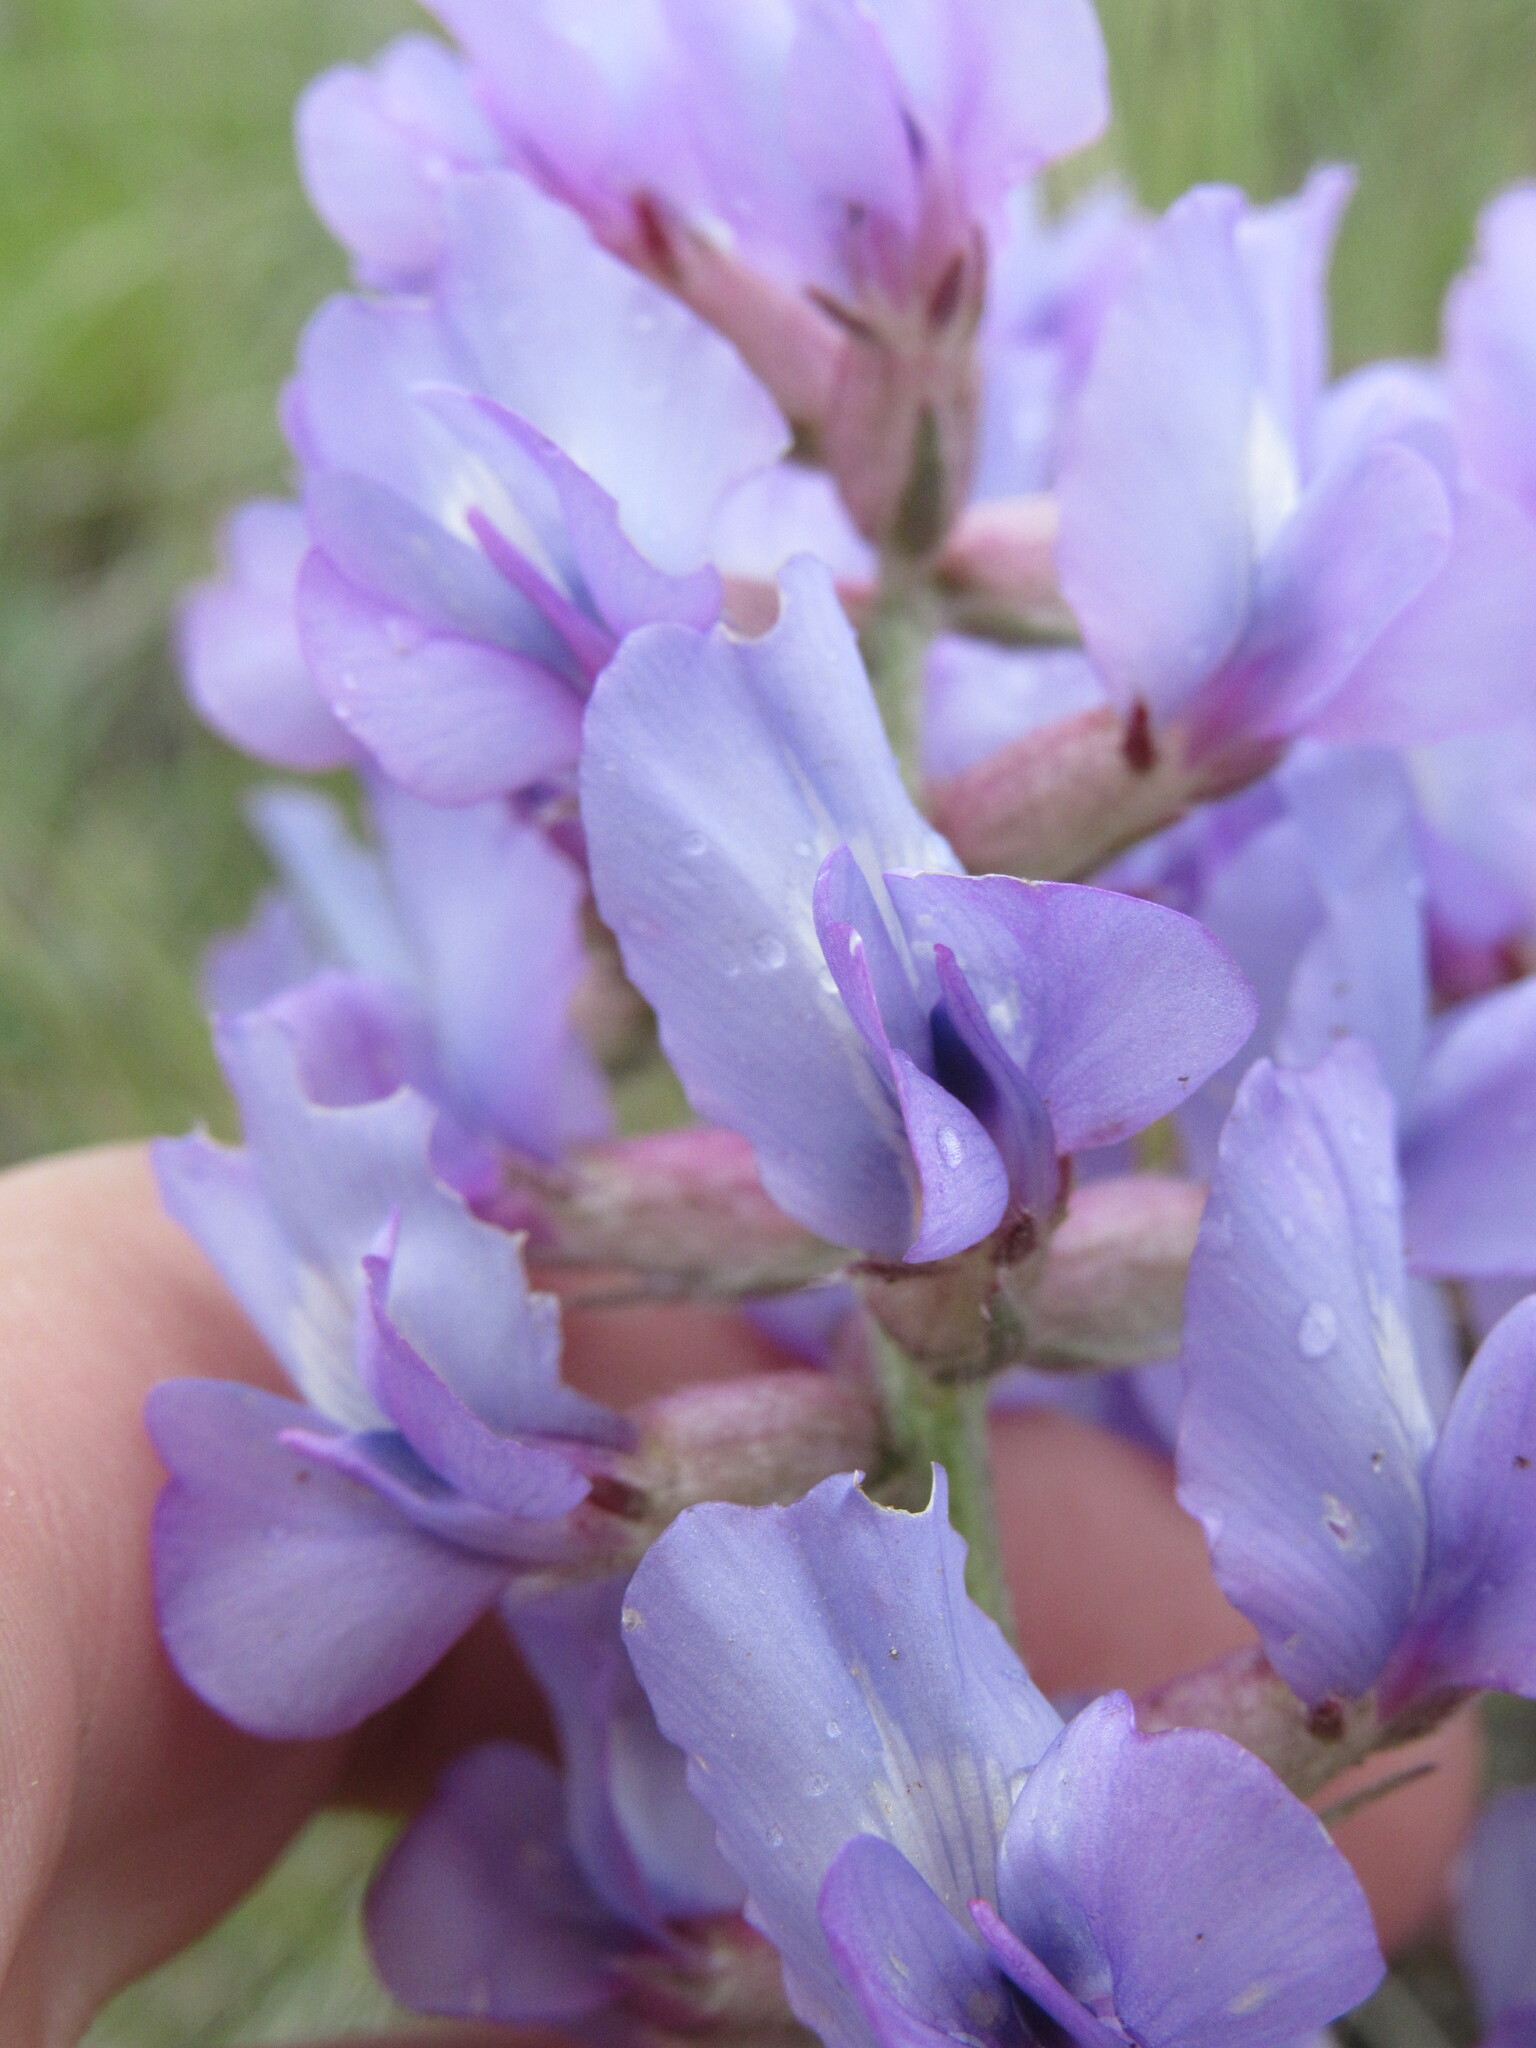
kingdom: Plantae
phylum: Tracheophyta
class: Magnoliopsida
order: Fabales
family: Fabaceae
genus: Oxytropis
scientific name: Oxytropis lambertii
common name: Purple locoweed
